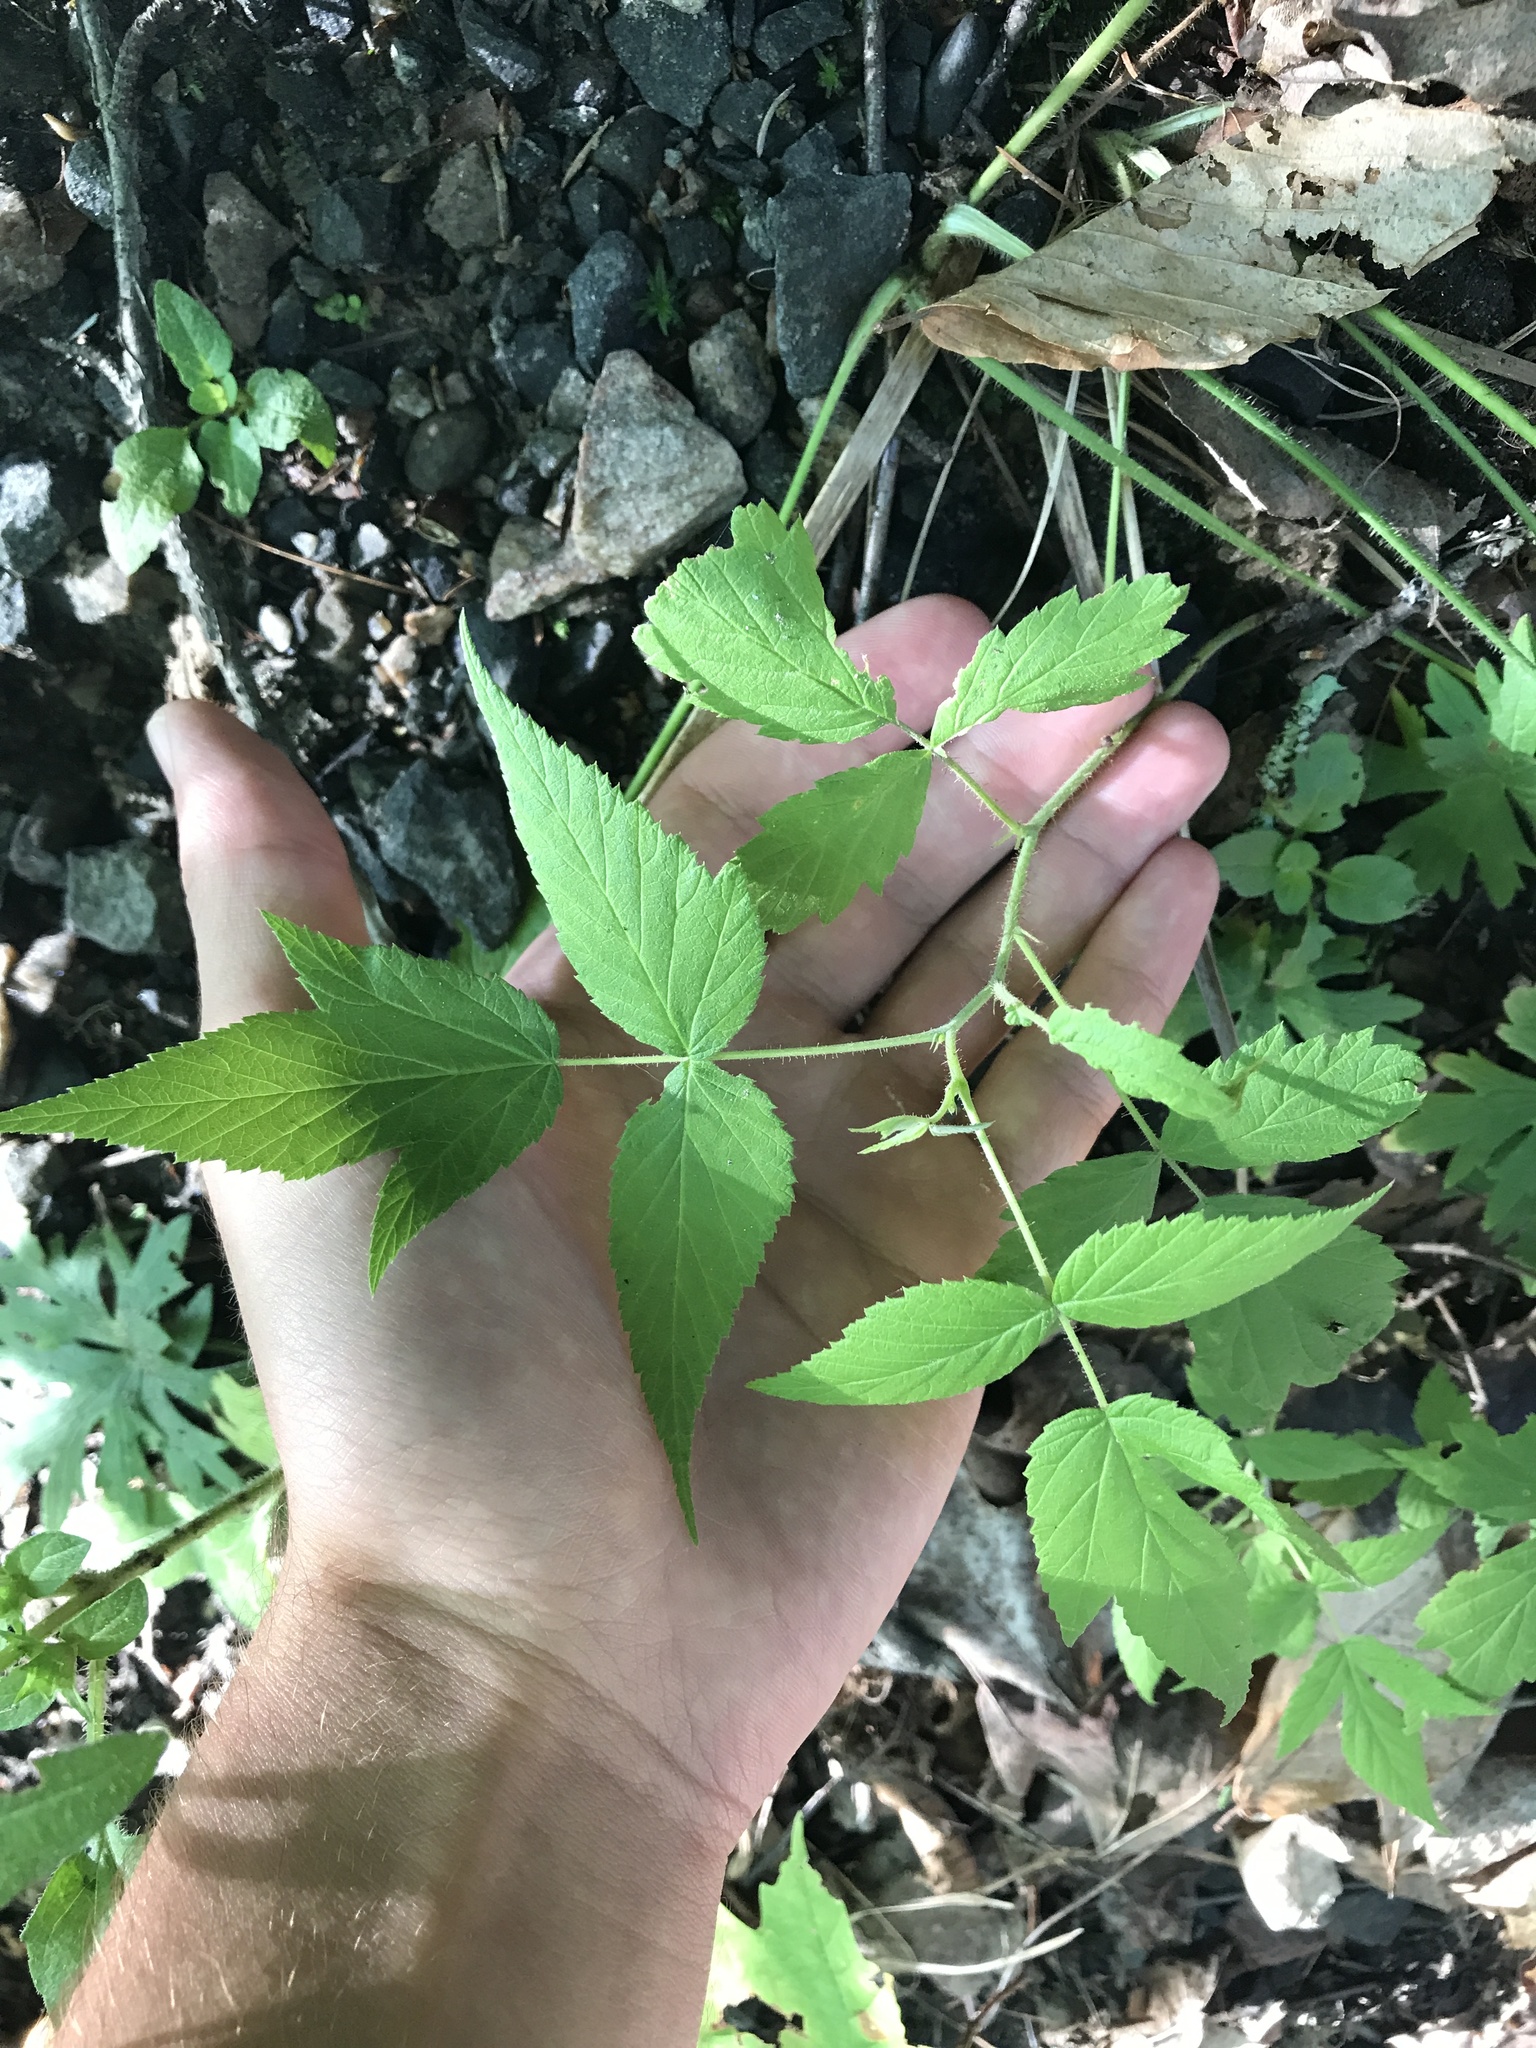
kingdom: Plantae
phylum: Tracheophyta
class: Magnoliopsida
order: Rosales
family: Rosaceae
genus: Rubus
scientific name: Rubus idaeus
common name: Raspberry
